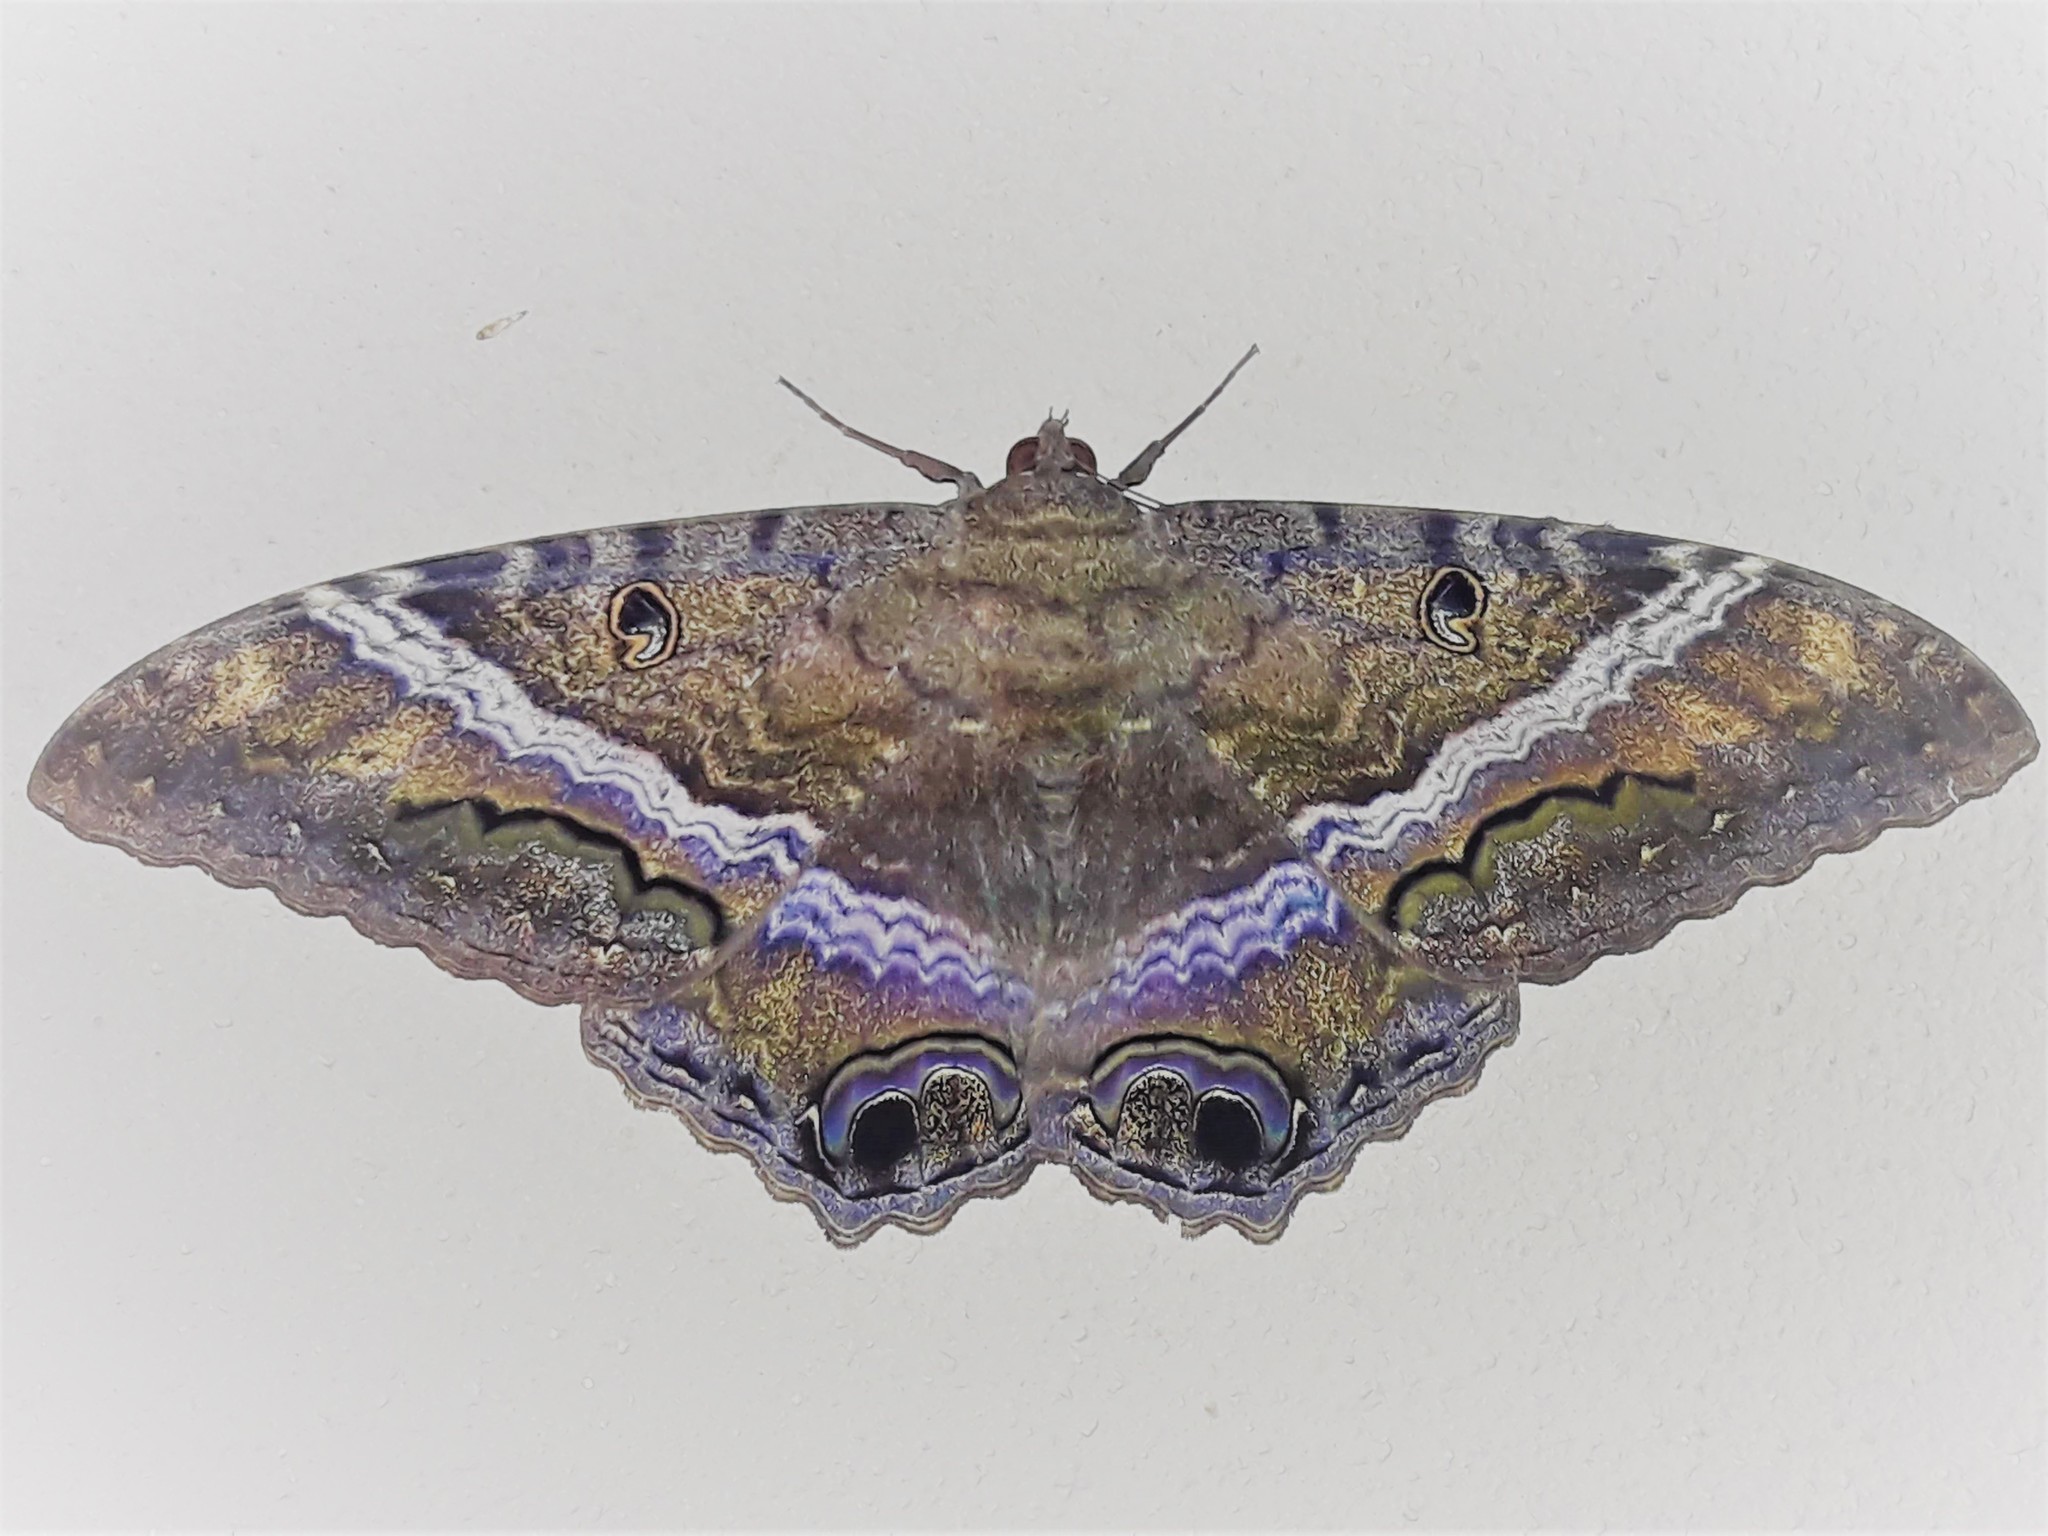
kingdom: Animalia
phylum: Arthropoda
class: Insecta
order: Lepidoptera
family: Erebidae
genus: Ascalapha
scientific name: Ascalapha odorata
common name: Black witch
